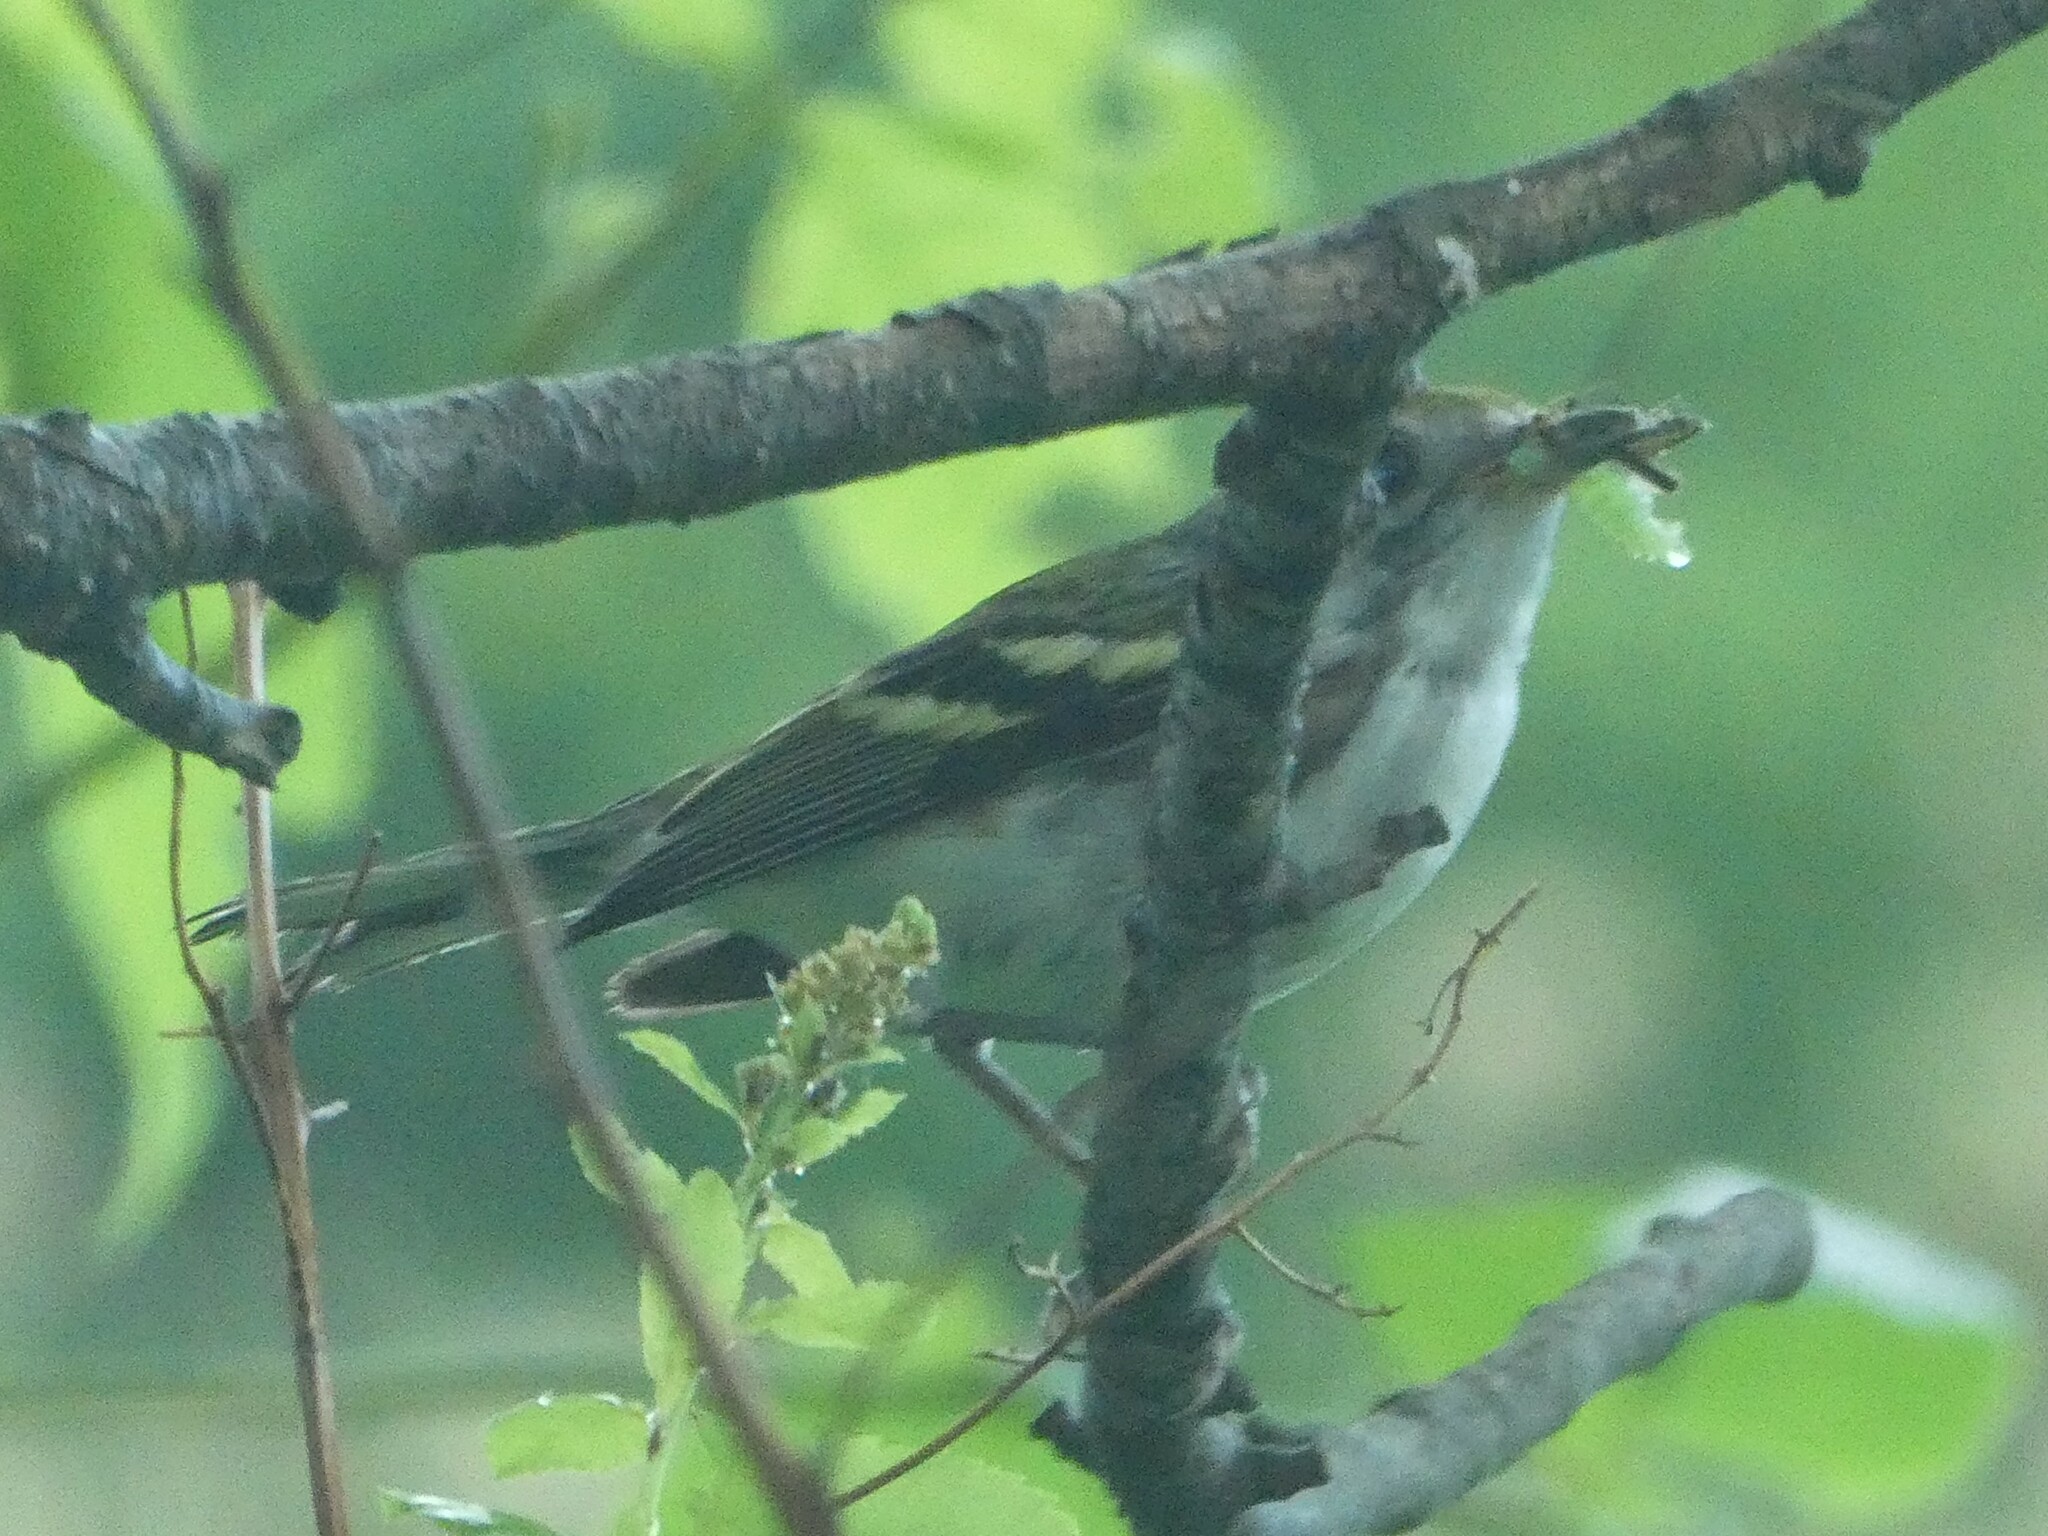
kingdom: Animalia
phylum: Chordata
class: Aves
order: Passeriformes
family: Parulidae
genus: Setophaga
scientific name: Setophaga pensylvanica
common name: Chestnut-sided warbler
